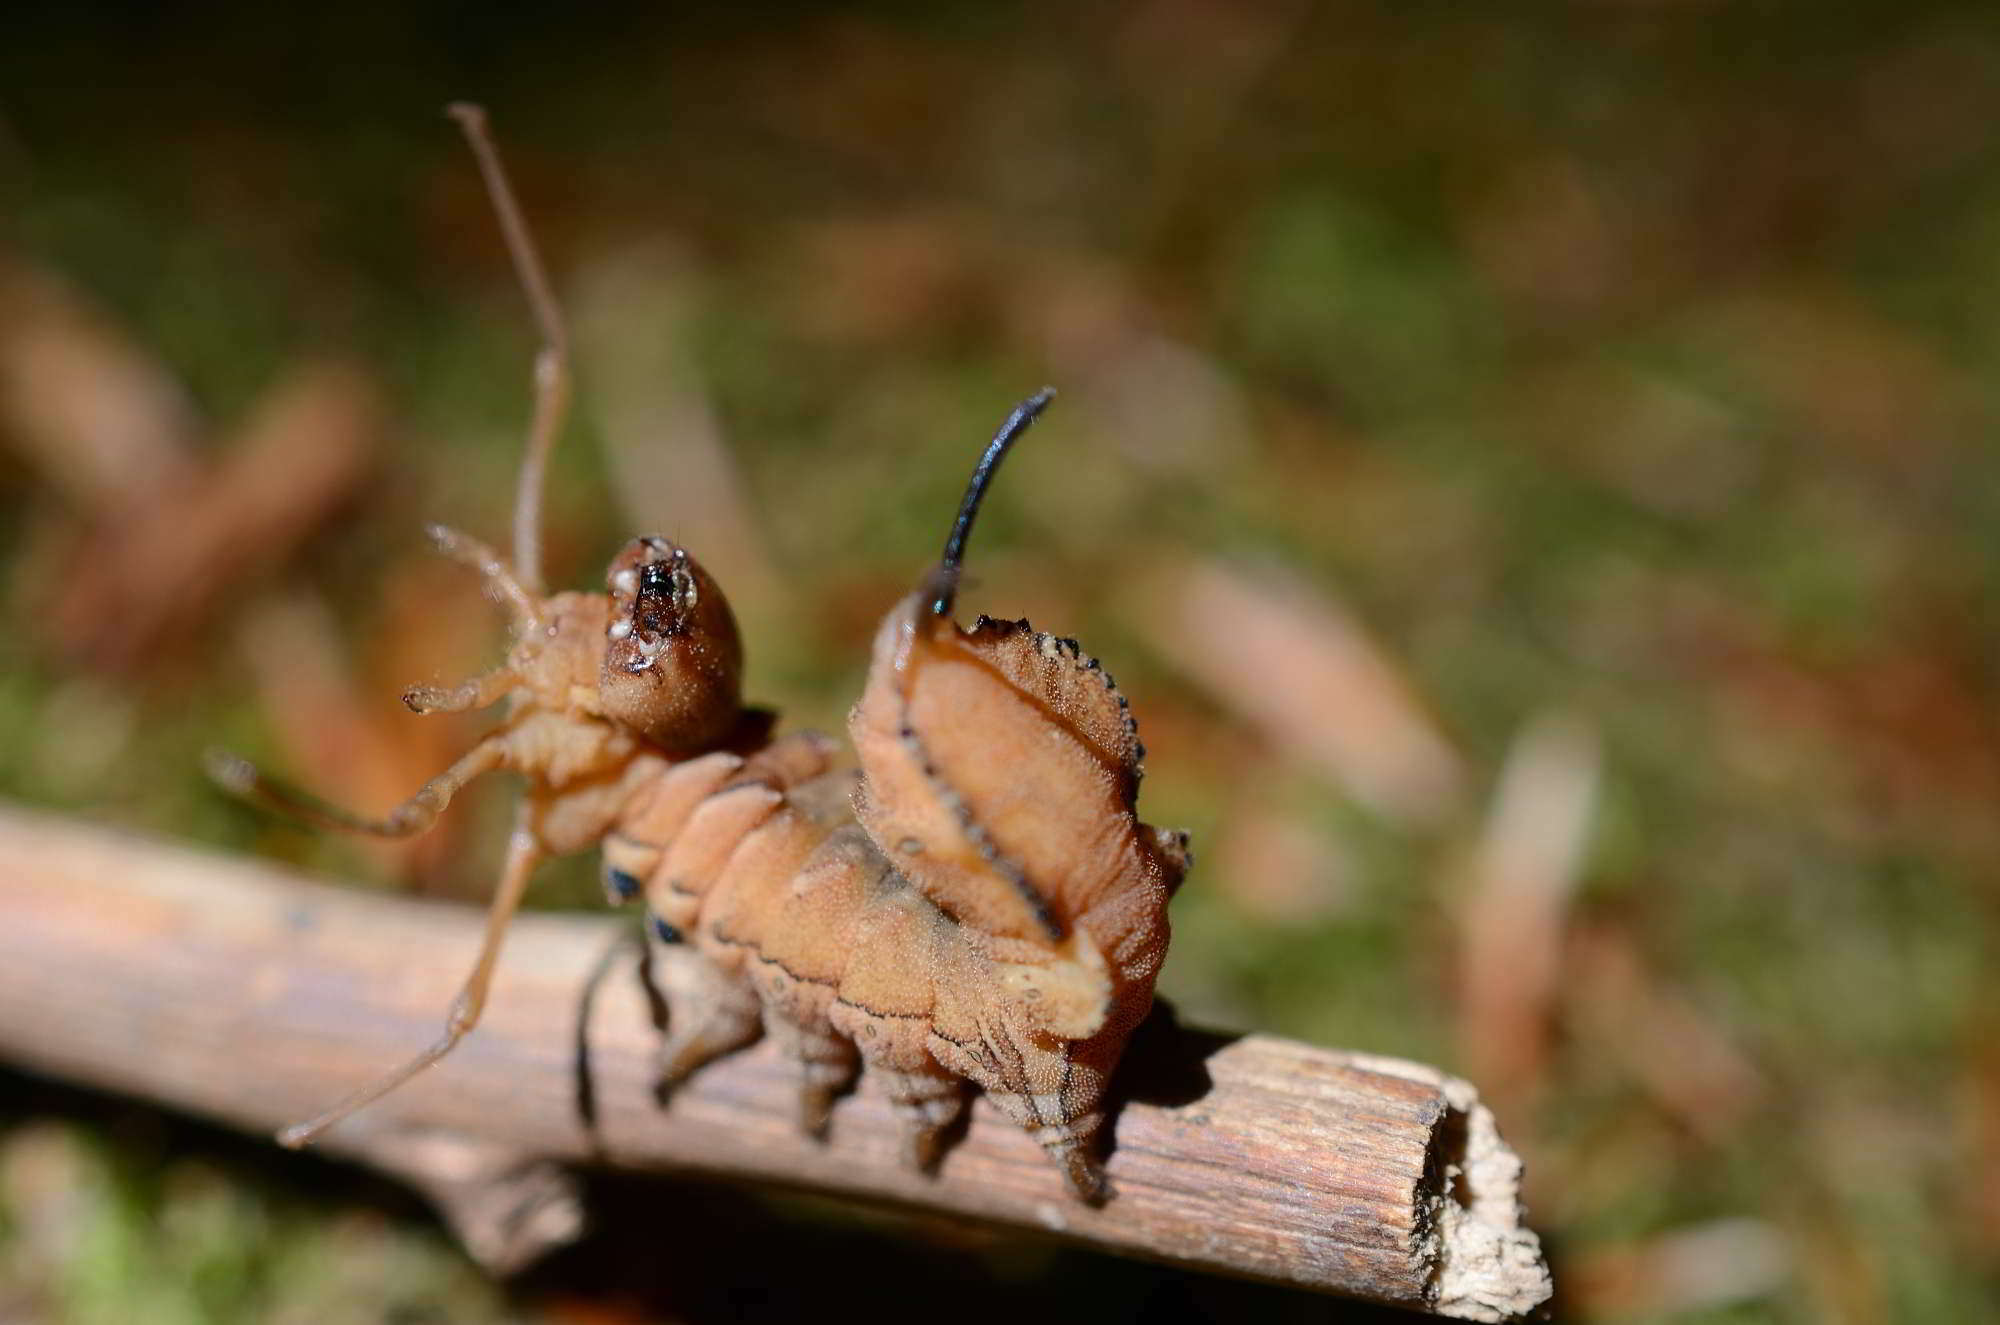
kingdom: Animalia
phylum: Arthropoda
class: Insecta
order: Lepidoptera
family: Notodontidae
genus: Stauropus
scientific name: Stauropus fagi
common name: Lobster moth
